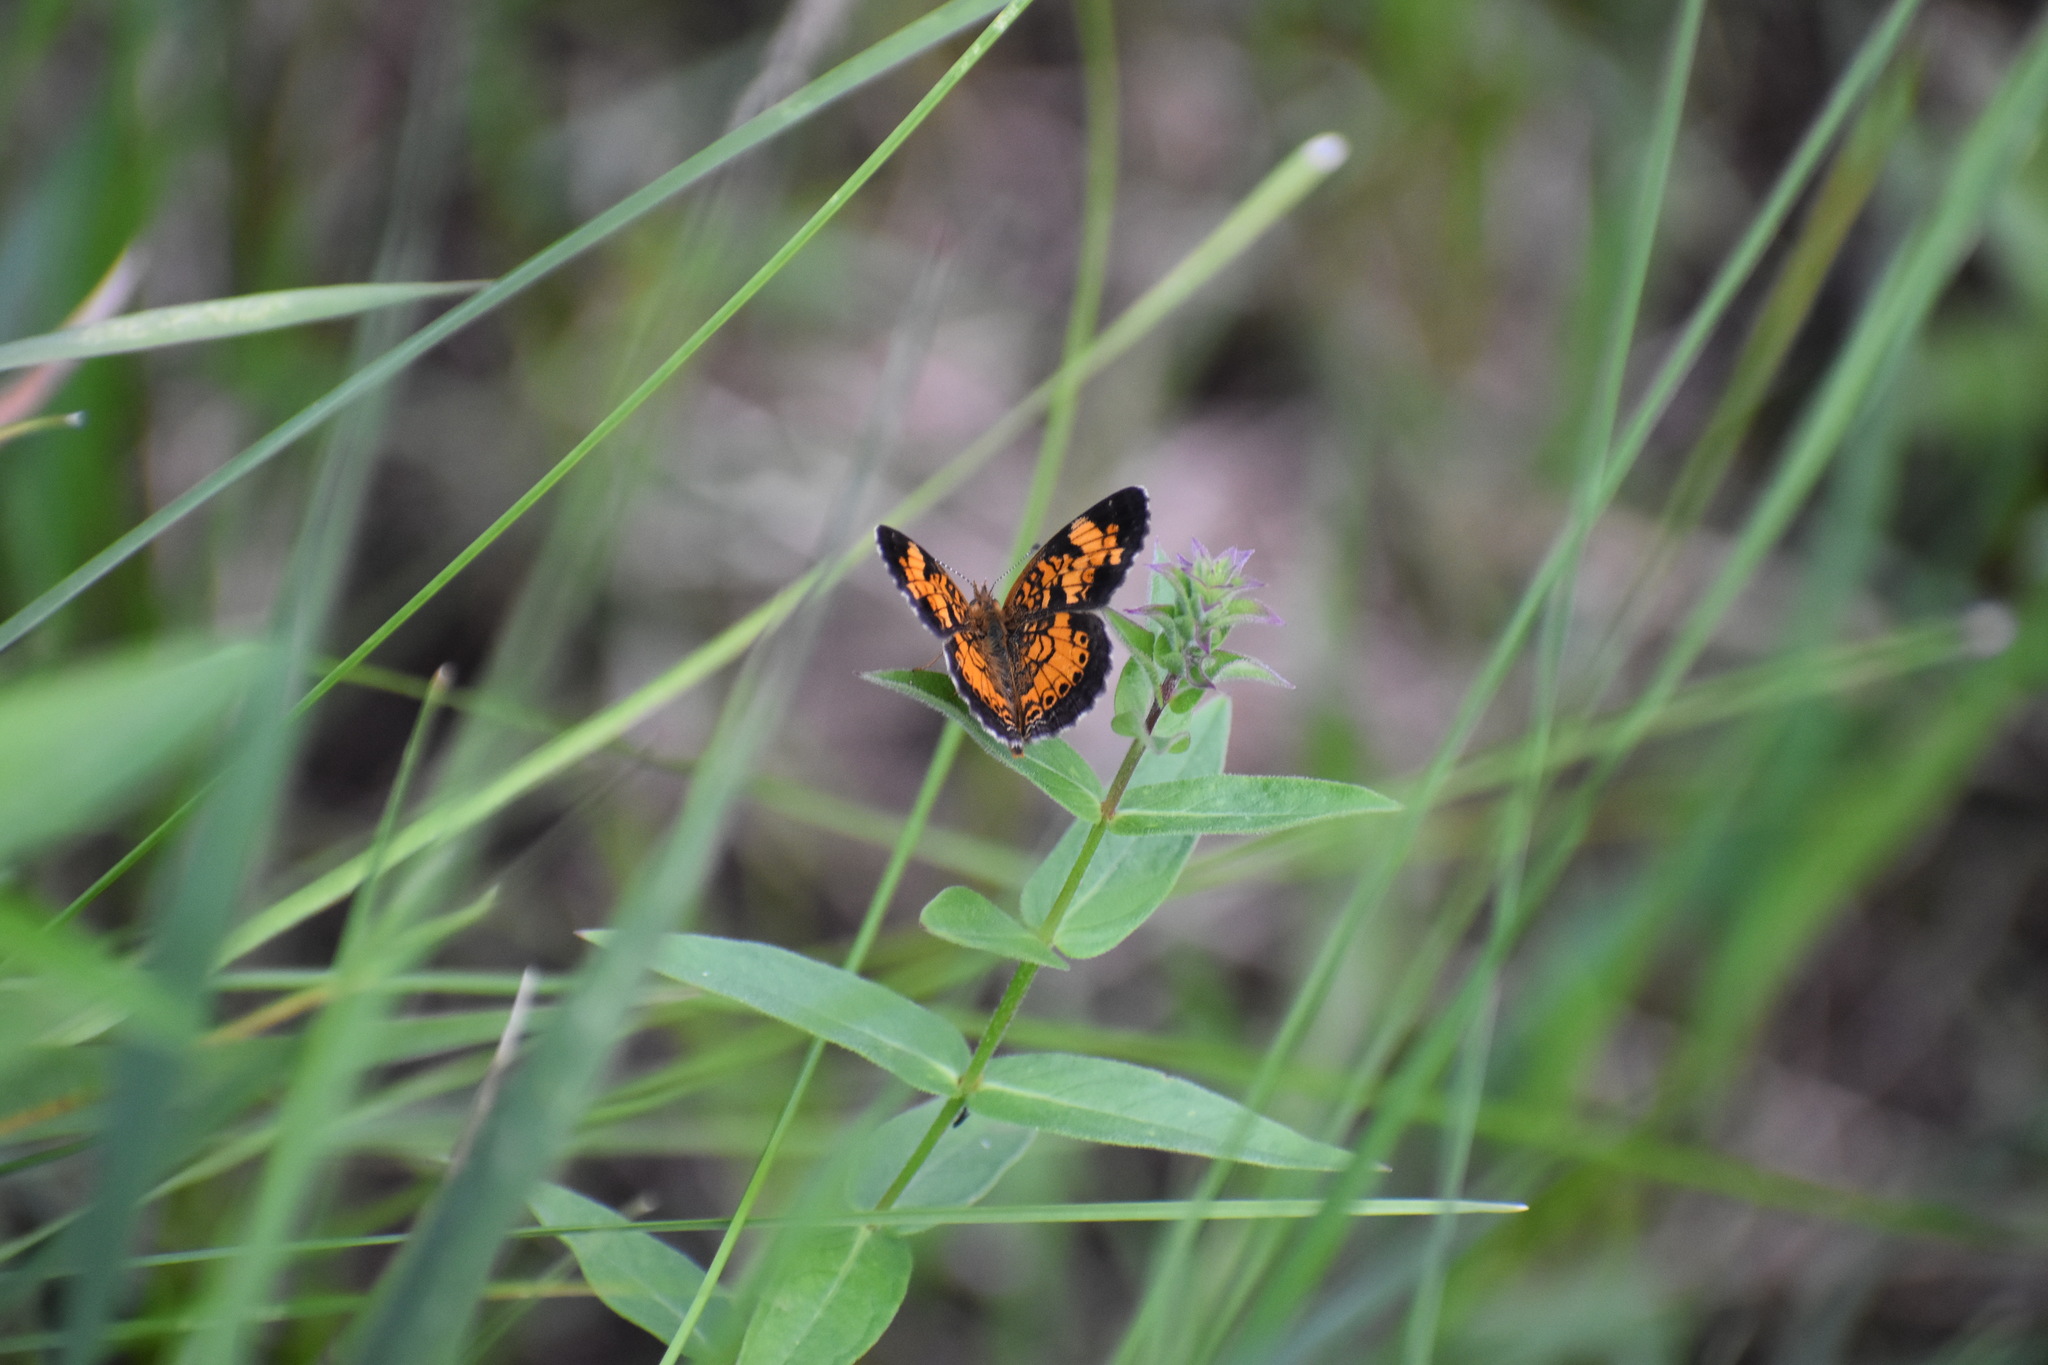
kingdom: Animalia
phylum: Arthropoda
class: Insecta
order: Lepidoptera
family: Nymphalidae
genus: Phyciodes
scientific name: Phyciodes tharos
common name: Pearl crescent
